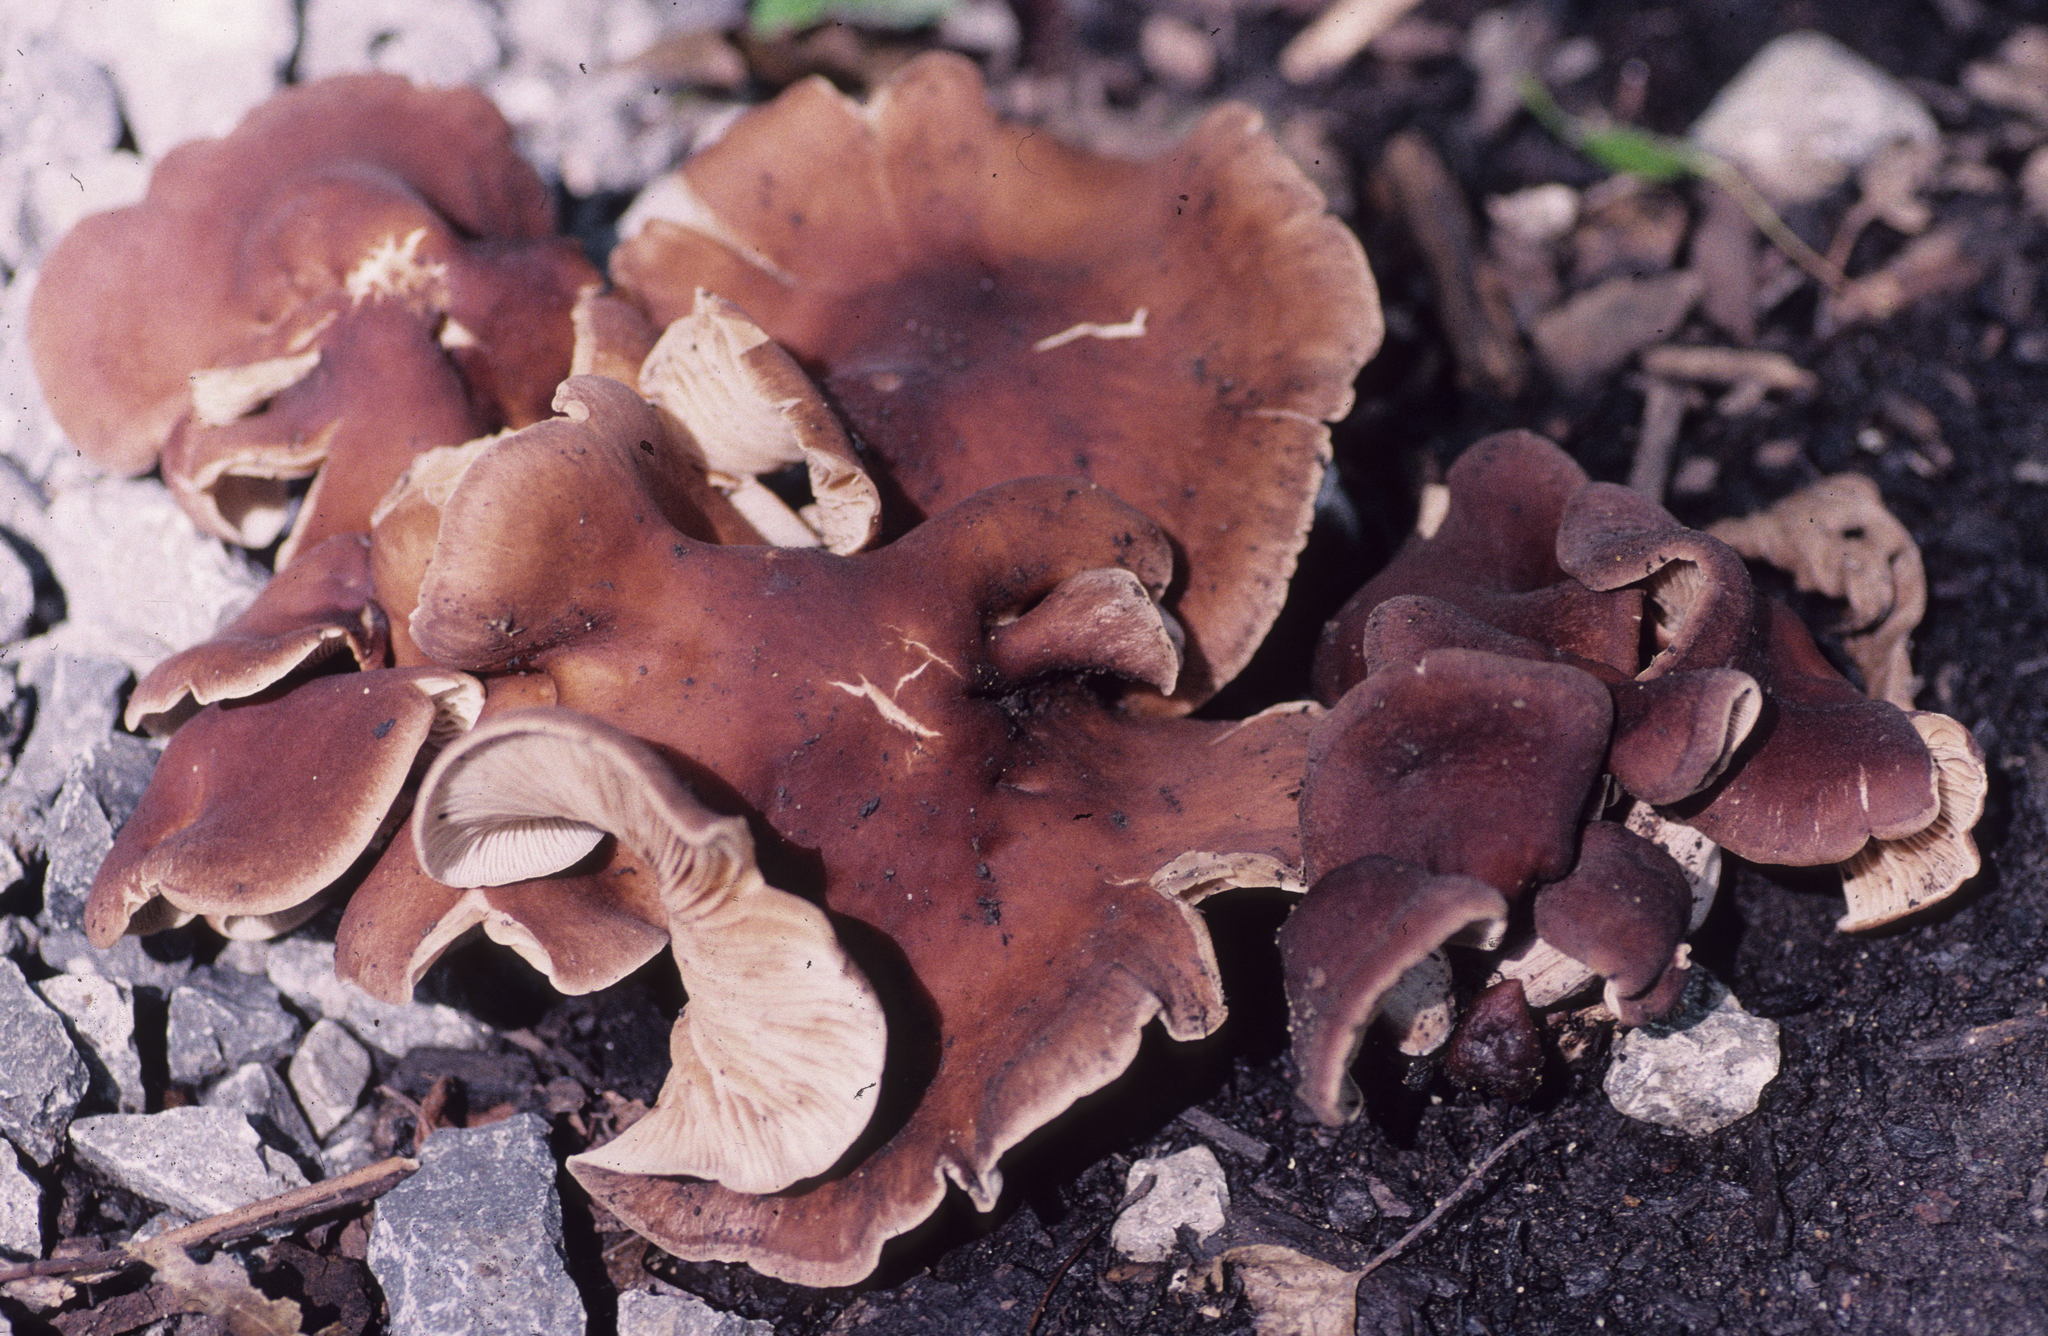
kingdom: Fungi
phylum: Basidiomycota
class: Agaricomycetes
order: Agaricales
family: Omphalotaceae
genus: Collybiopsis
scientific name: Collybiopsis luxurians
